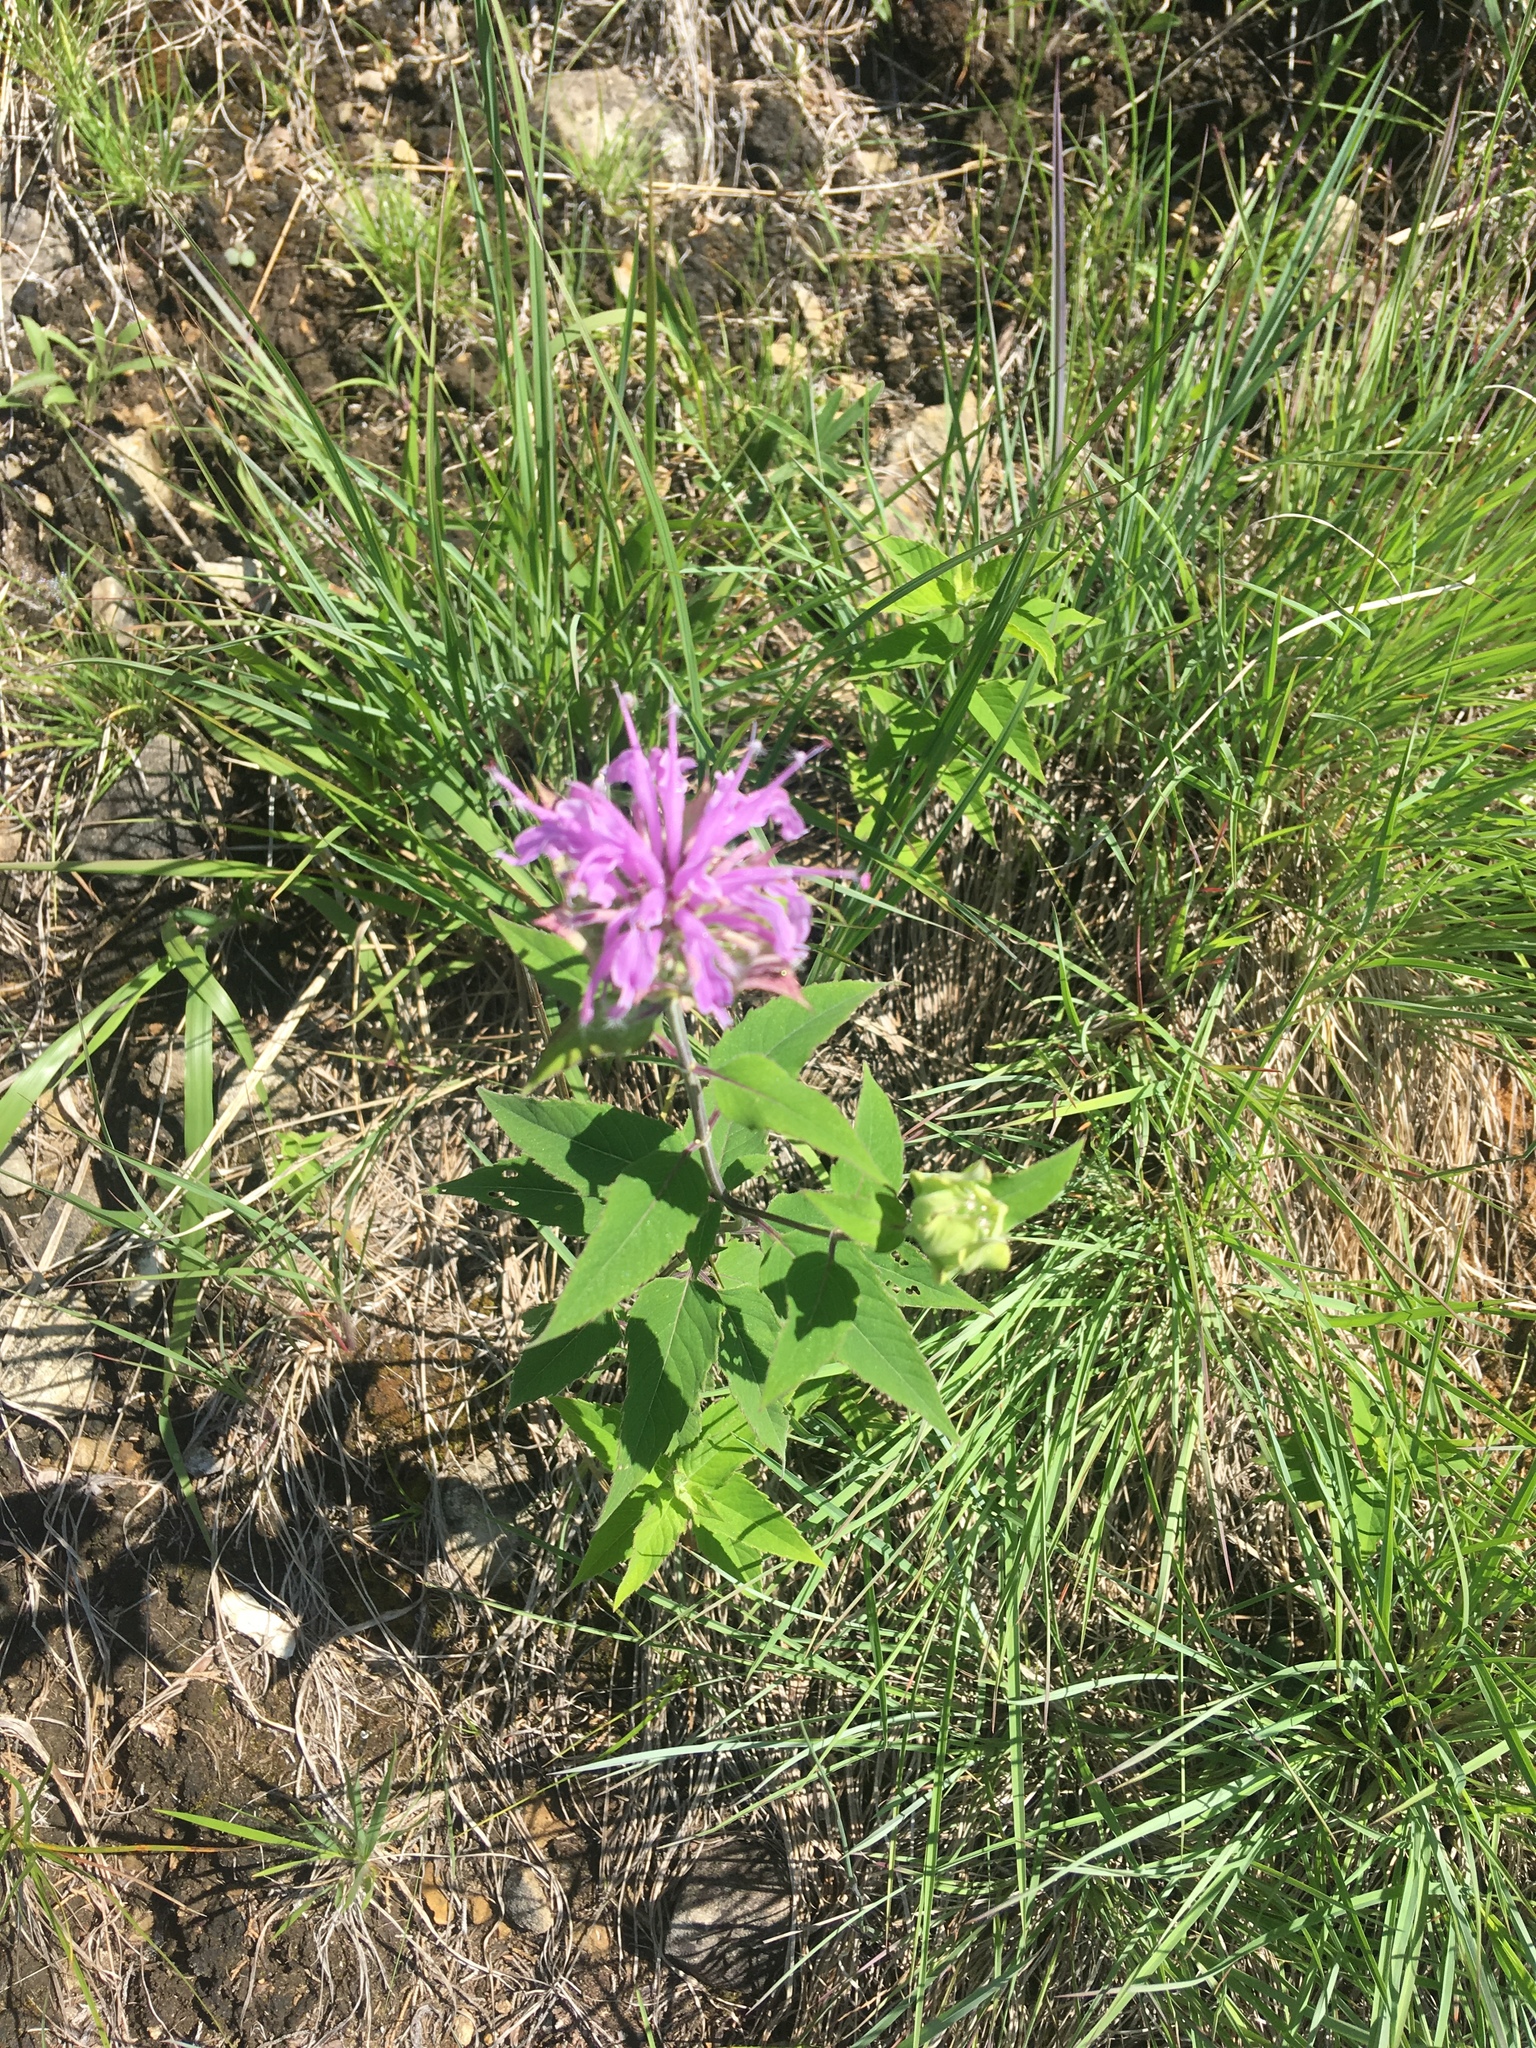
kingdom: Plantae
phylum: Tracheophyta
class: Magnoliopsida
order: Lamiales
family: Lamiaceae
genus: Monarda
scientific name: Monarda fistulosa
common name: Purple beebalm
